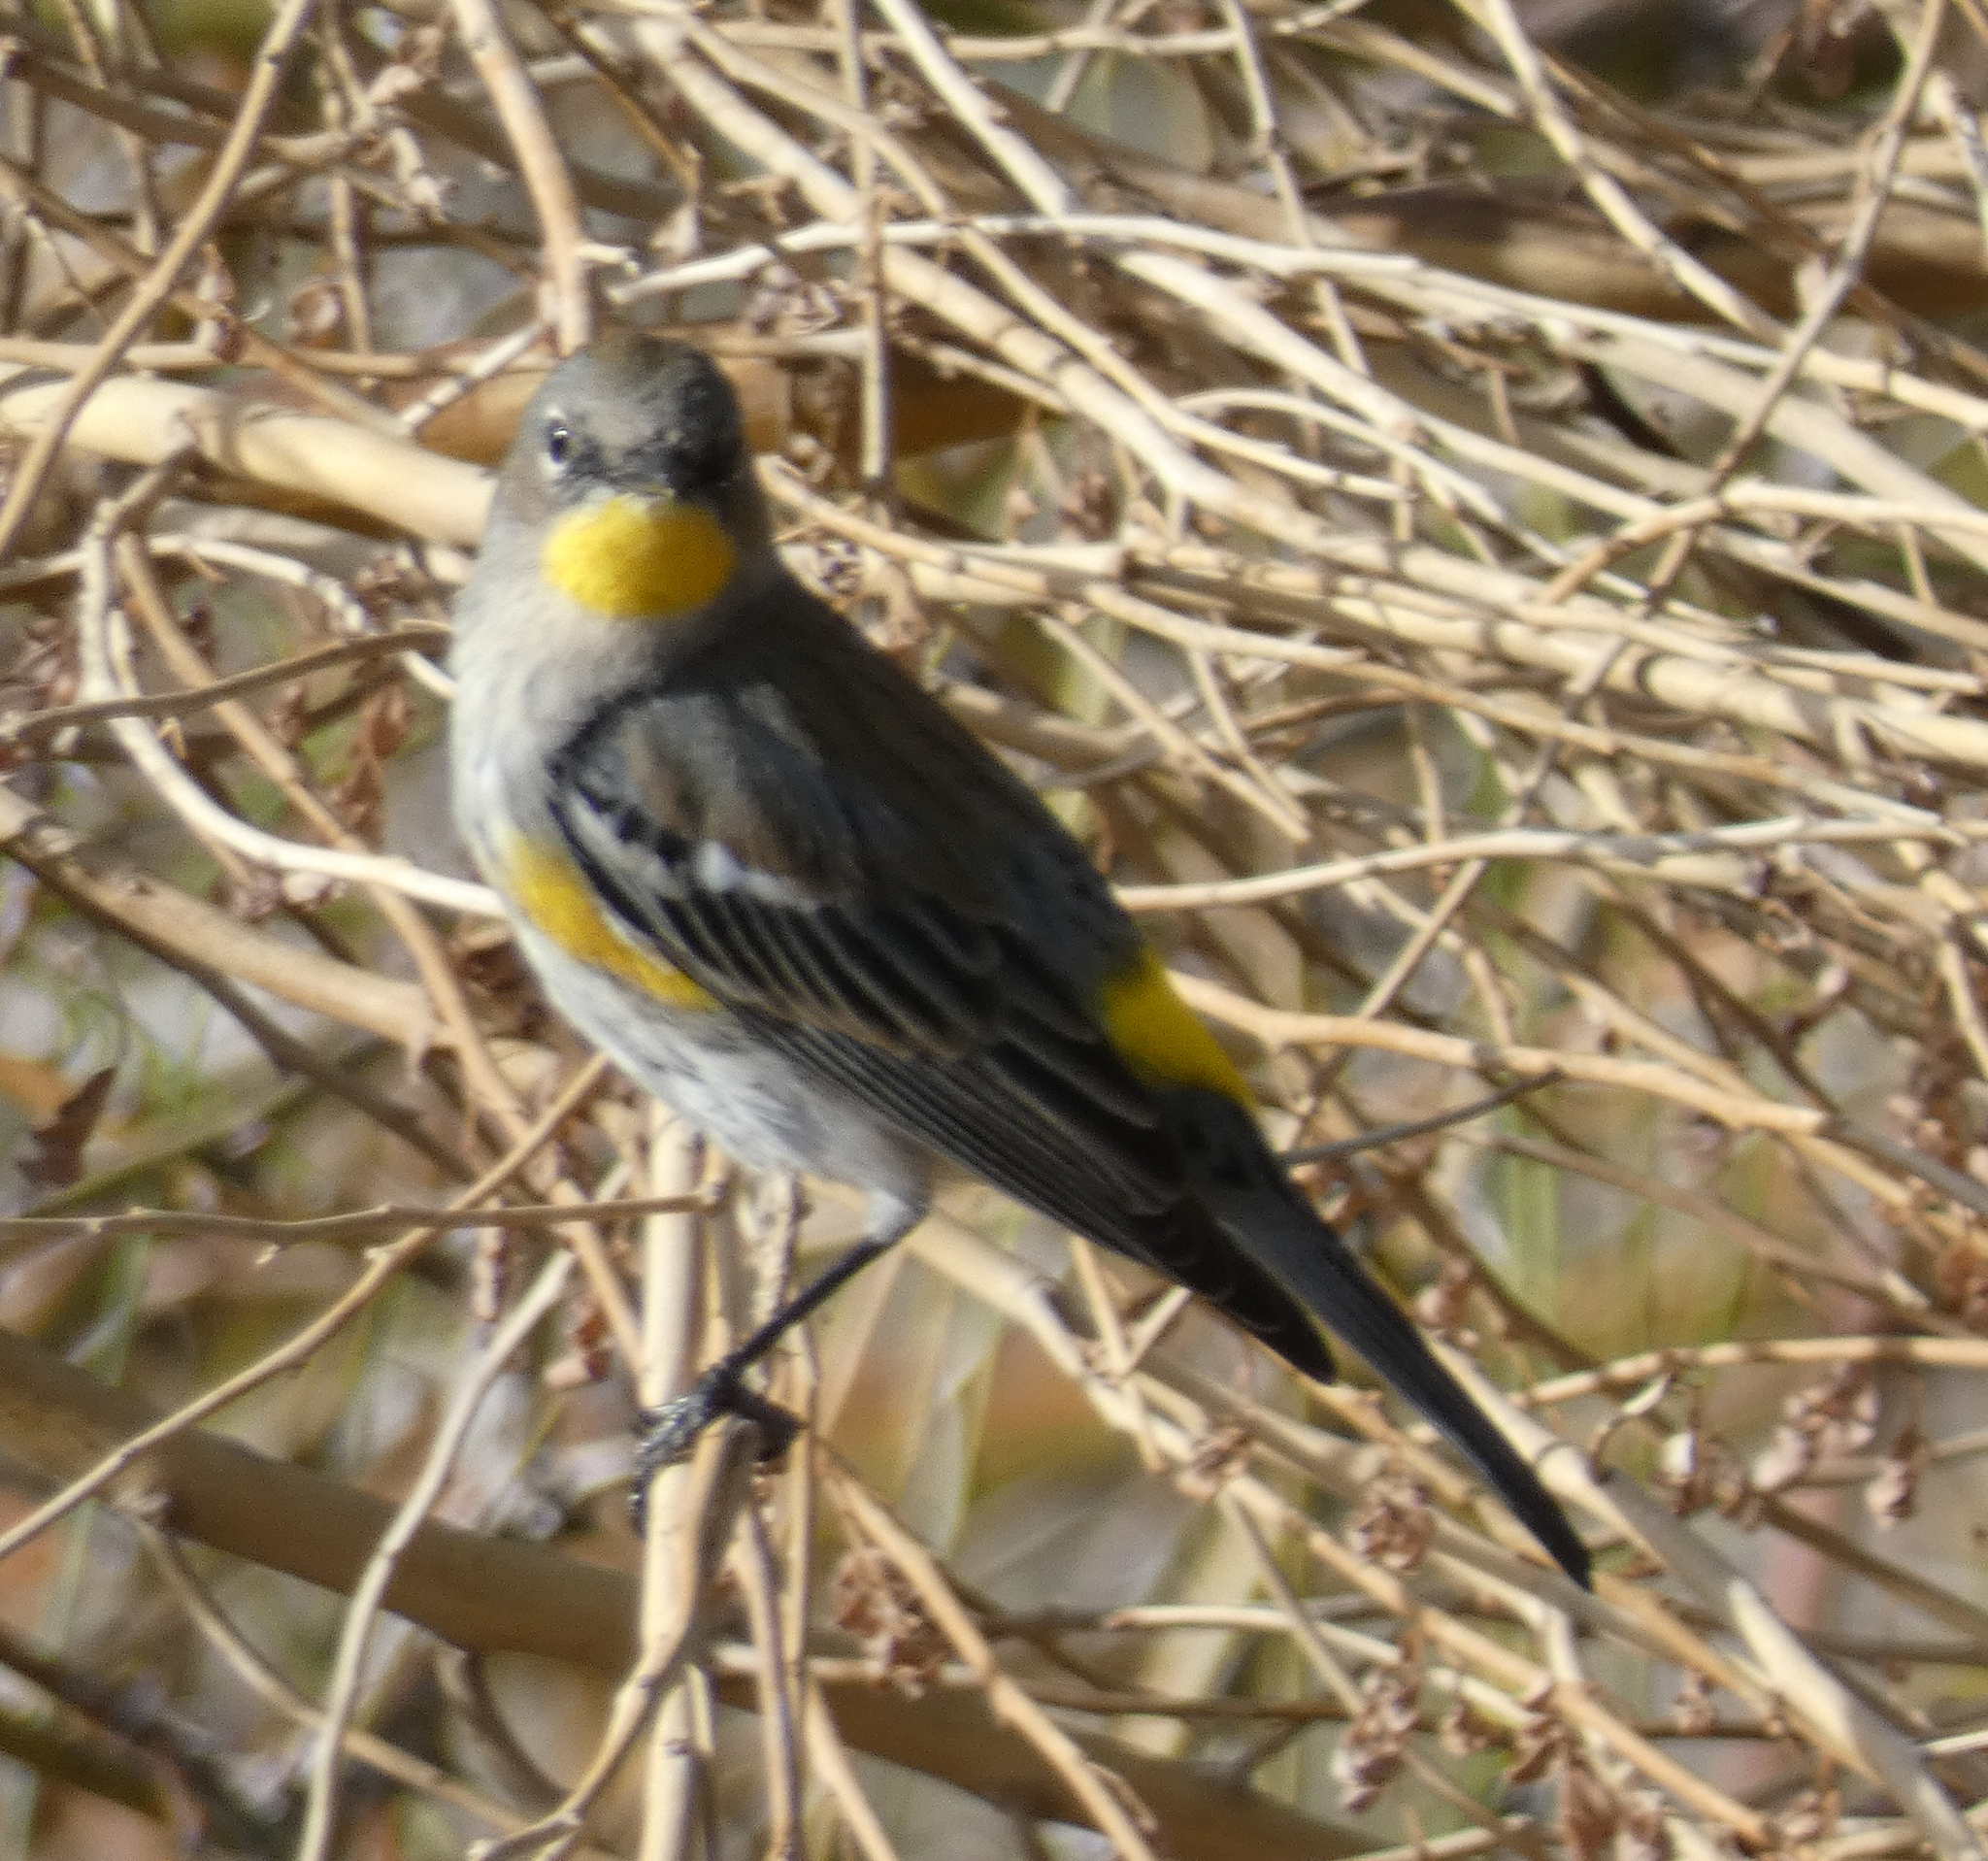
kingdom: Animalia
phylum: Chordata
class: Aves
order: Passeriformes
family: Parulidae
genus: Setophaga
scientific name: Setophaga coronata
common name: Myrtle warbler
